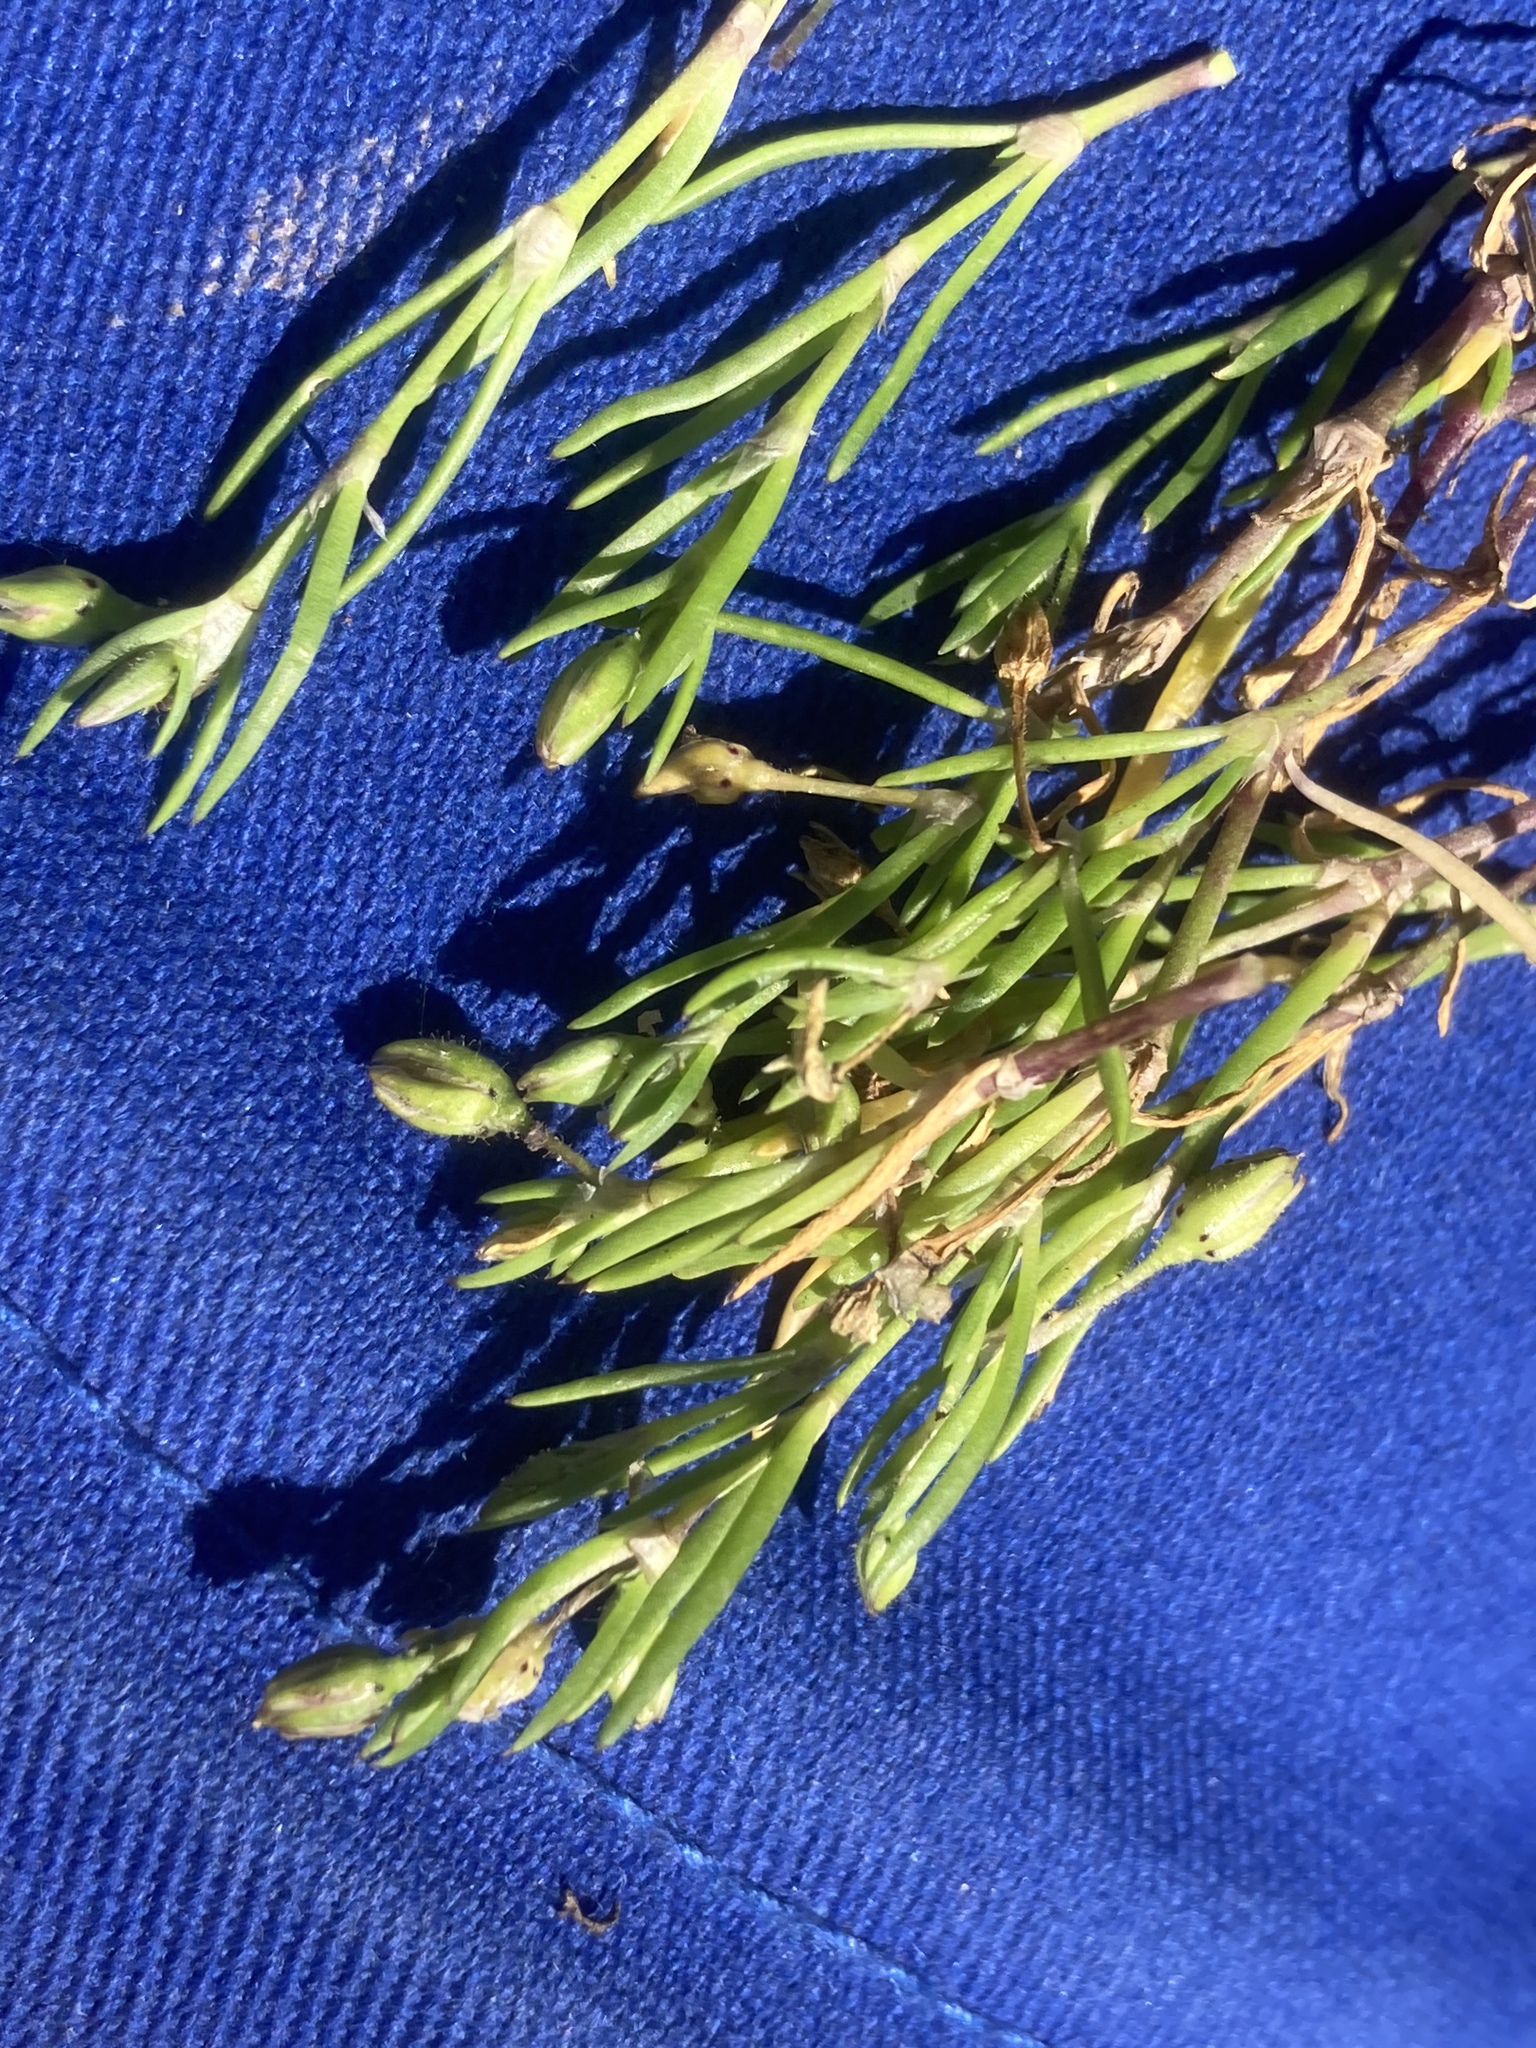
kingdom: Plantae
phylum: Tracheophyta
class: Magnoliopsida
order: Caryophyllales
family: Caryophyllaceae
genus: Spergularia
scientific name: Spergularia marina
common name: Lesser sea-spurrey
